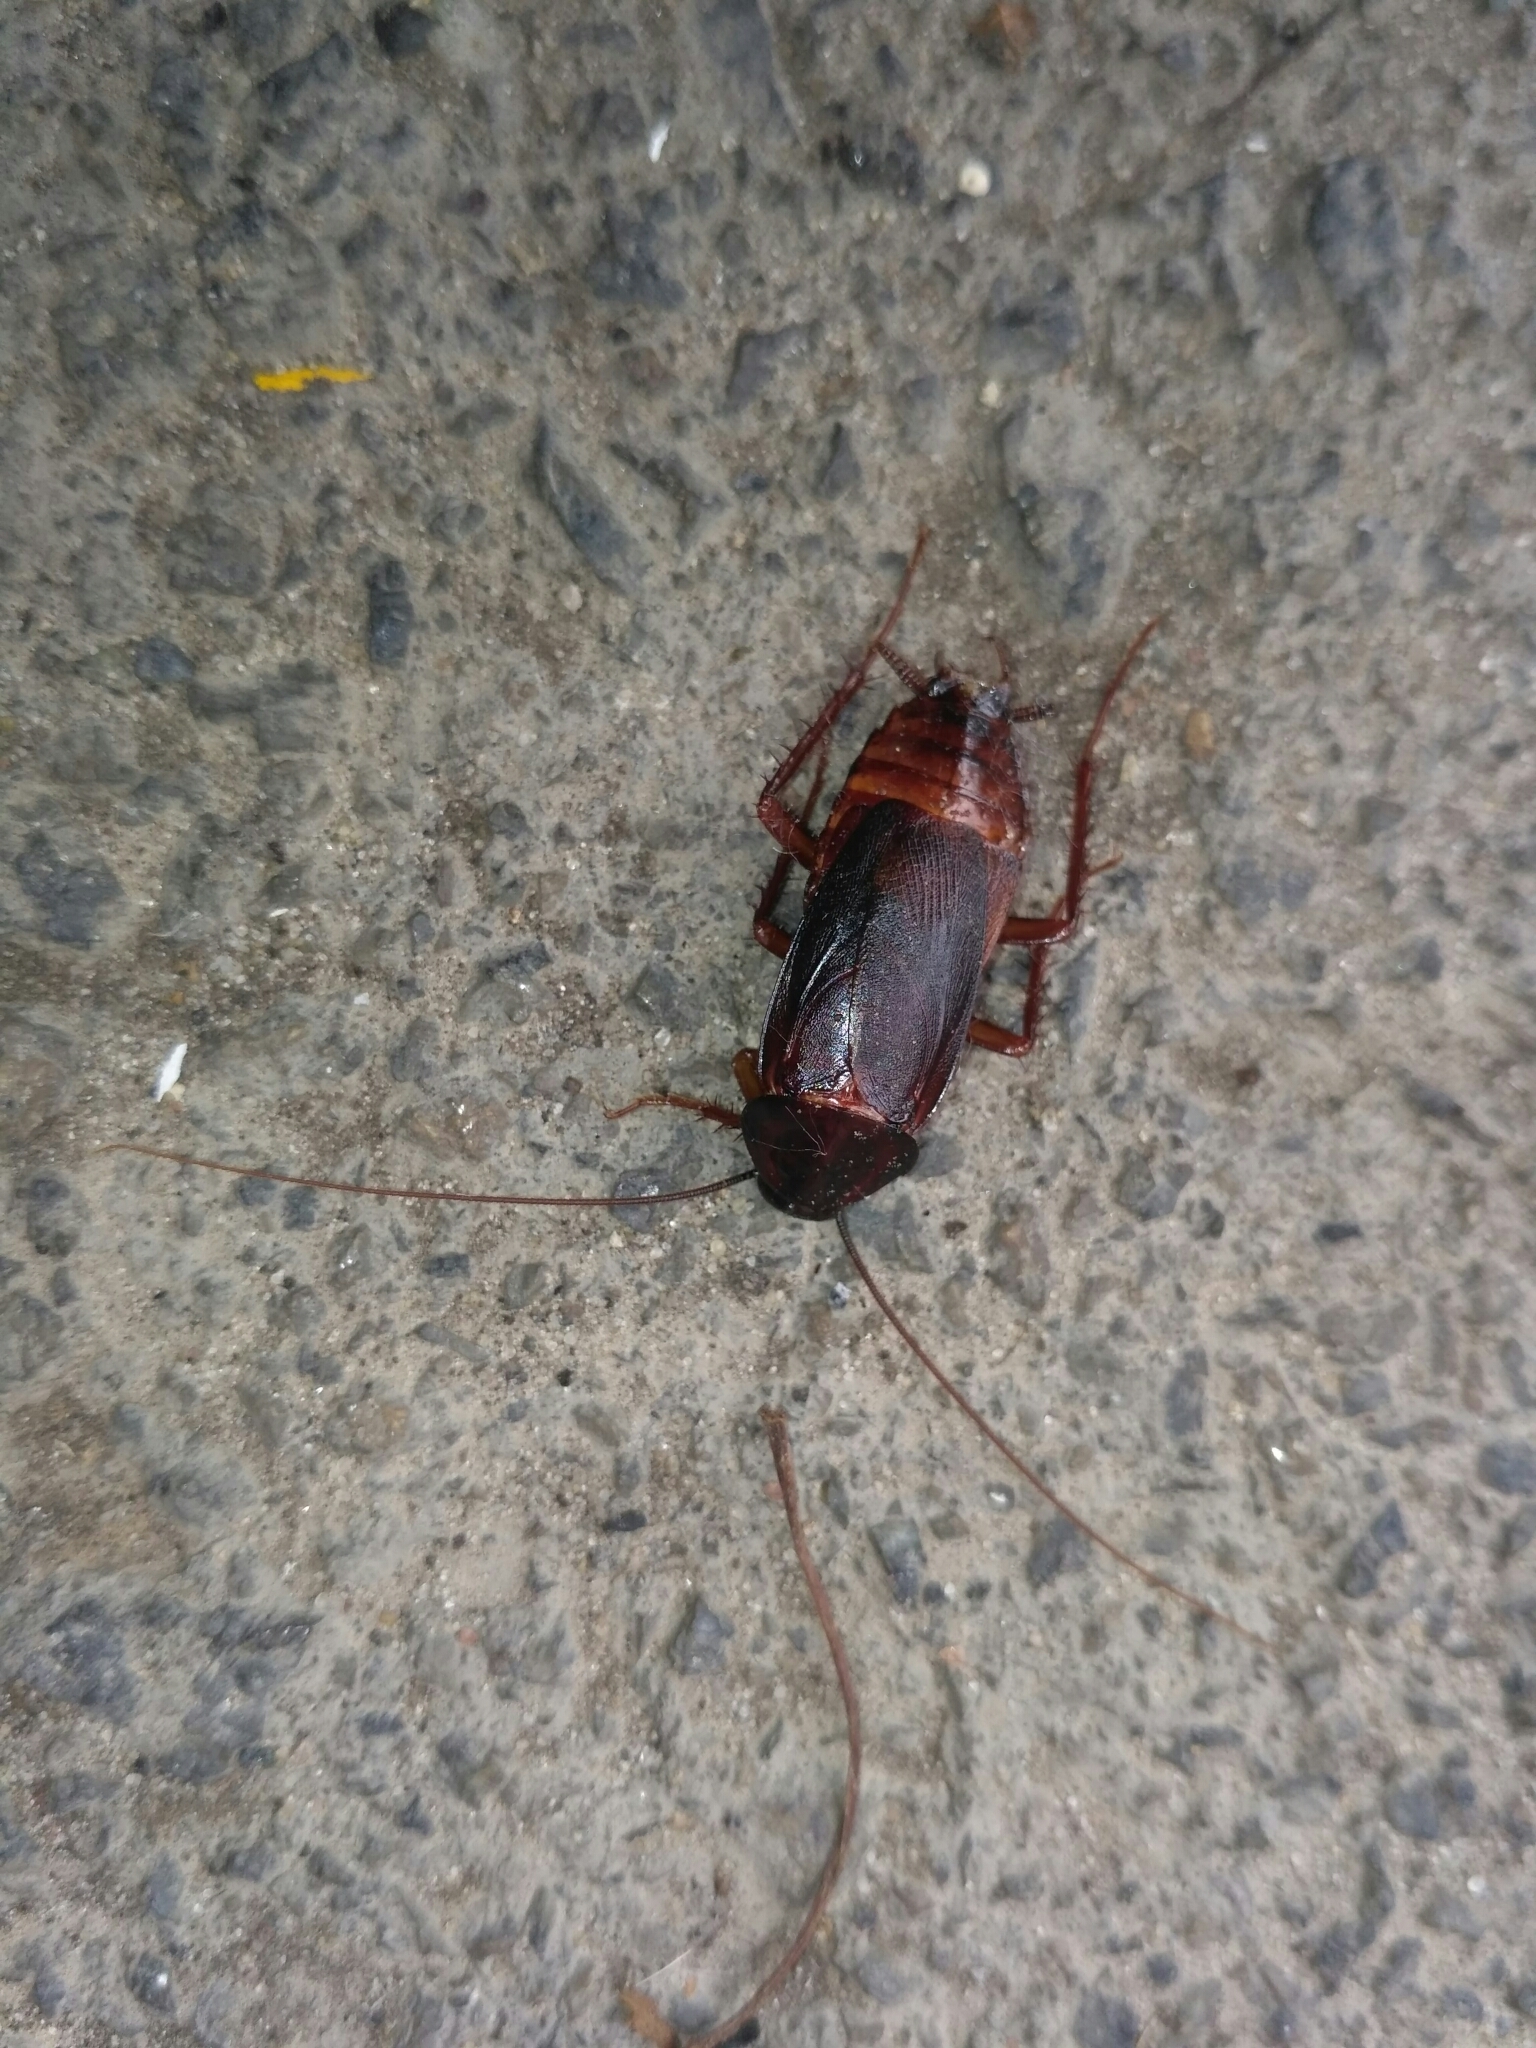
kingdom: Animalia
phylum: Arthropoda
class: Insecta
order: Blattodea
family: Blattidae
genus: Blatta
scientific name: Blatta orientalis
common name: Oriental cockroach
